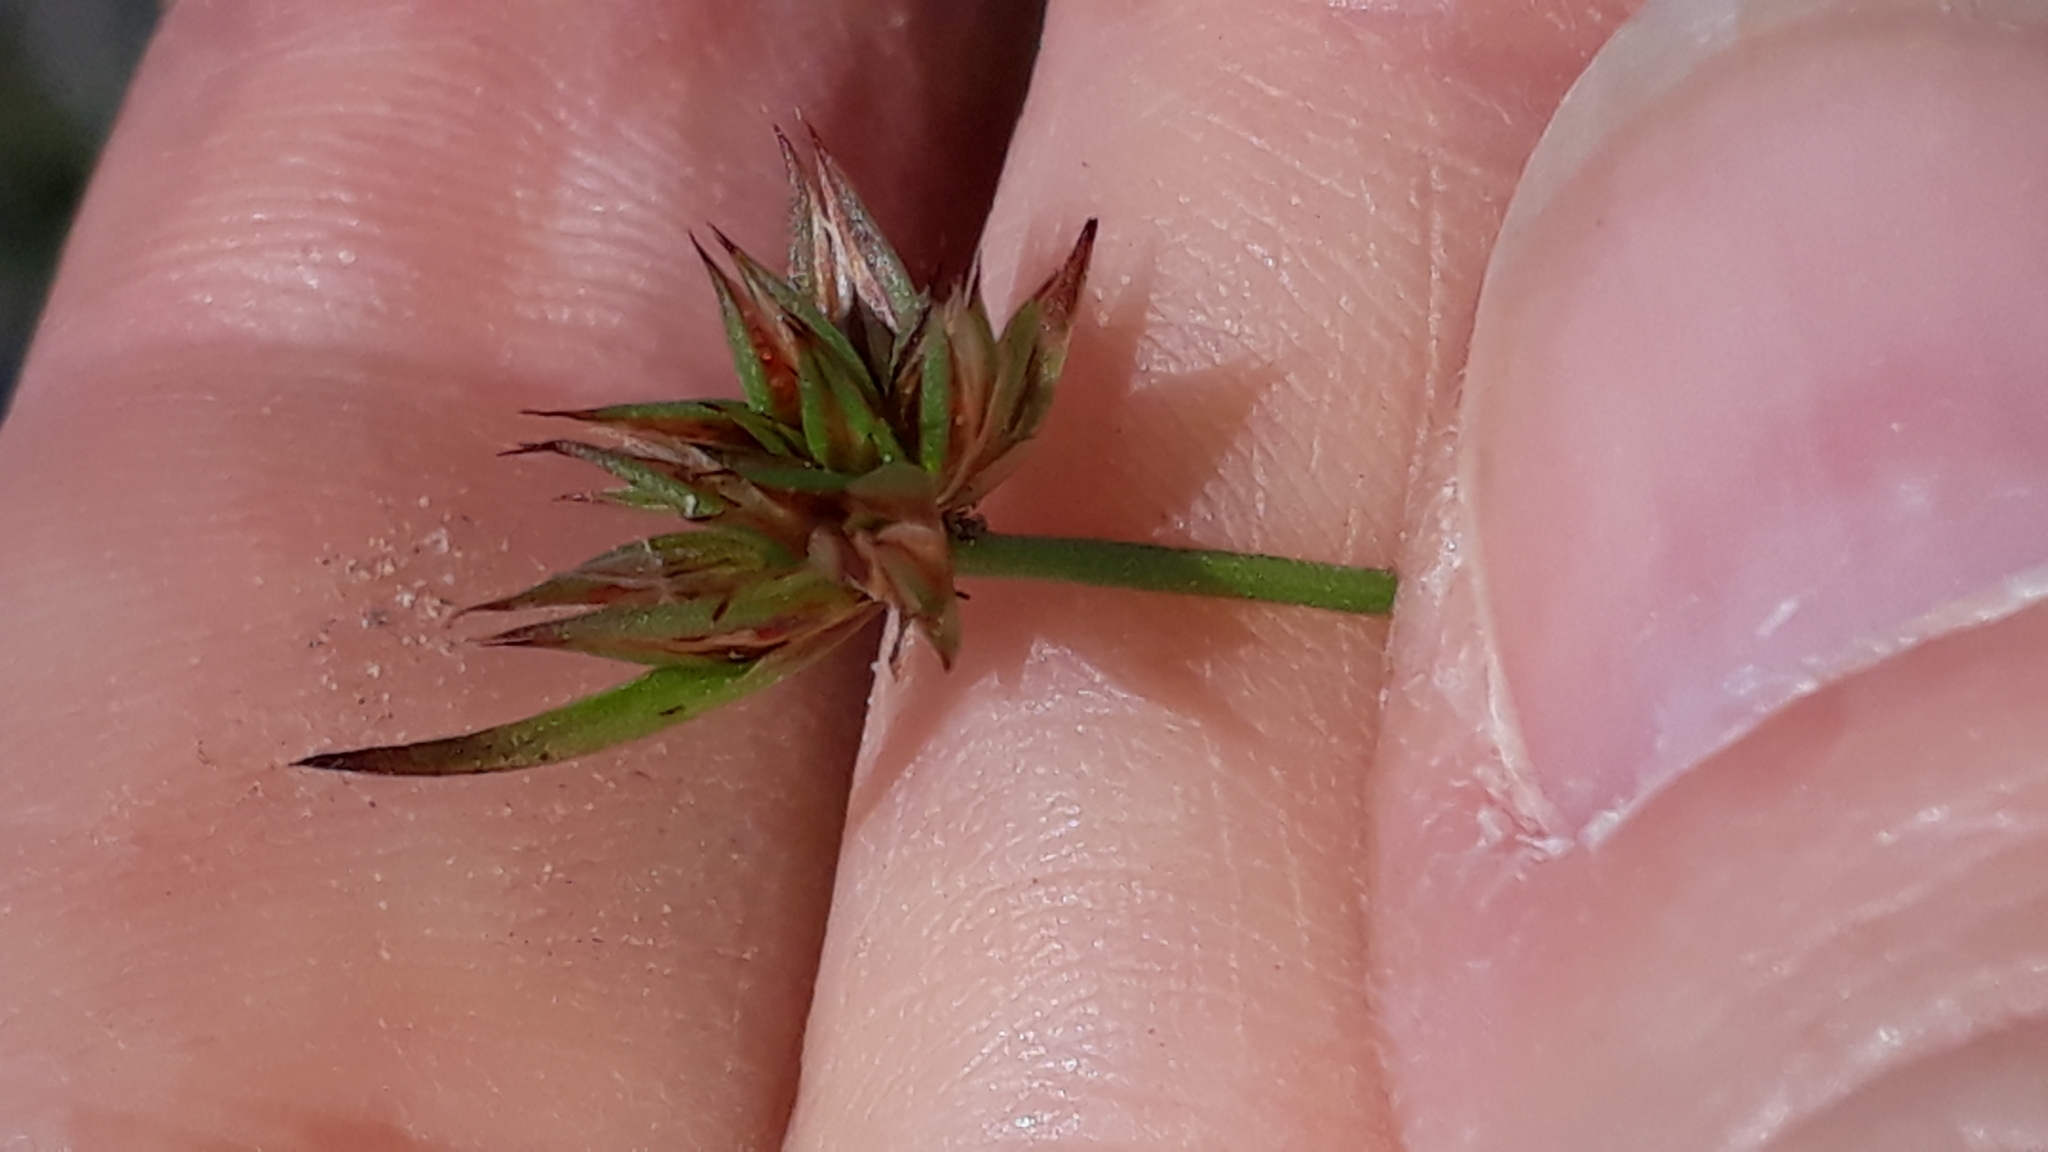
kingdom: Plantae
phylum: Tracheophyta
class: Liliopsida
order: Poales
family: Juncaceae
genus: Juncus
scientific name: Juncus capitatus
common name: Dwarf rush
